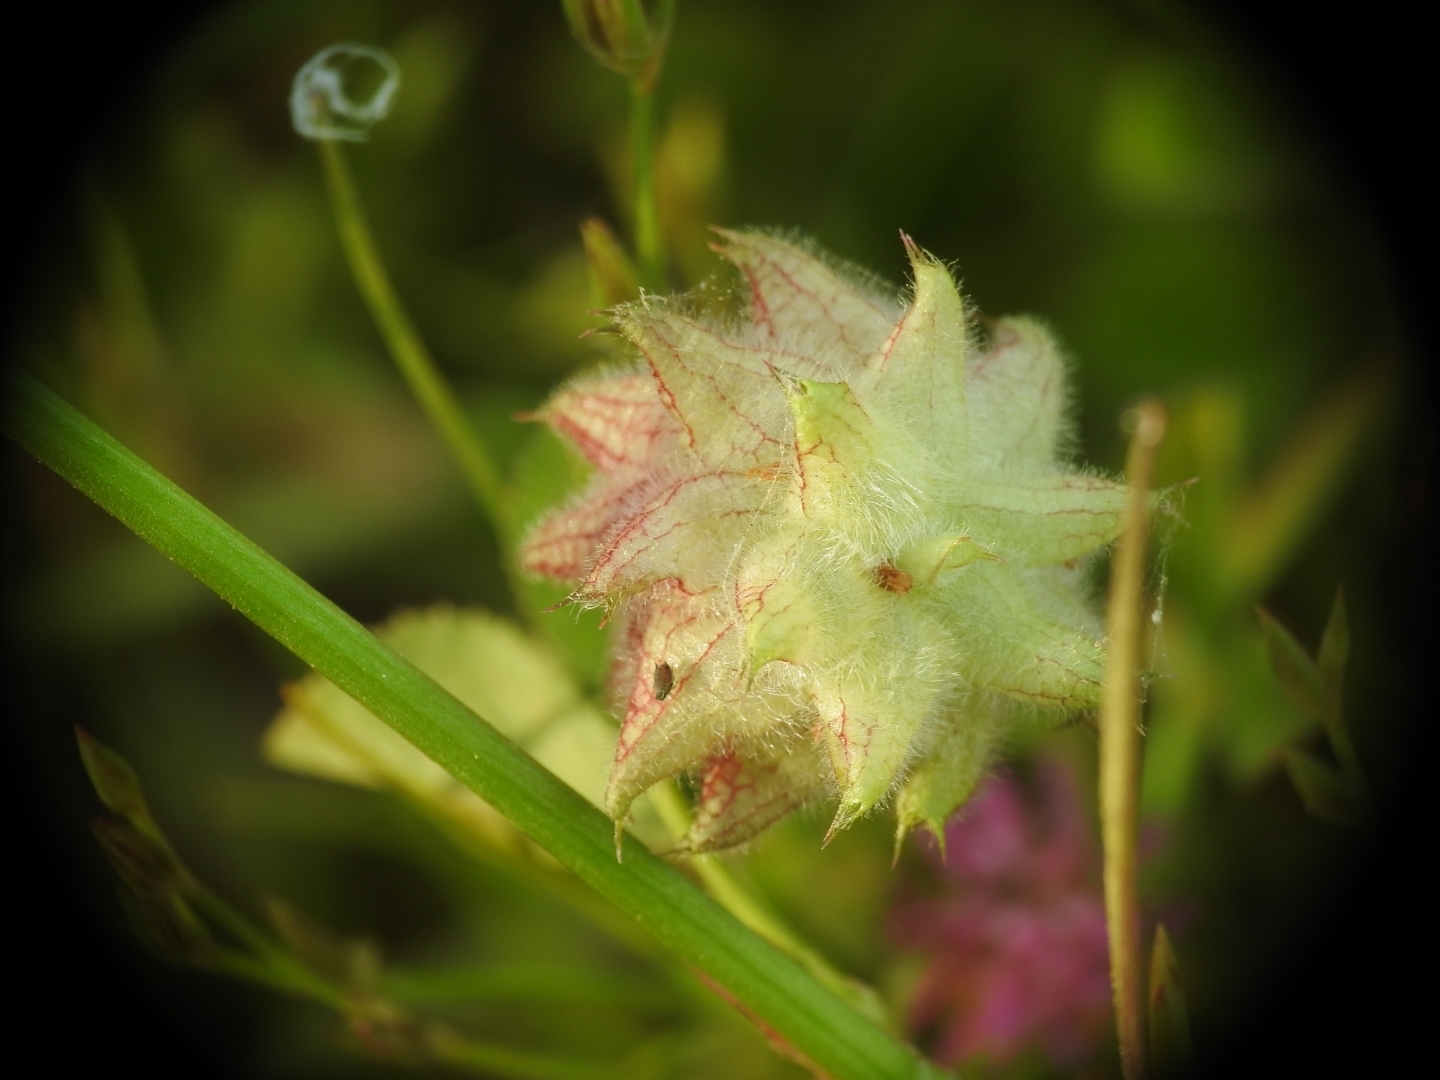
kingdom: Plantae
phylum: Tracheophyta
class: Magnoliopsida
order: Fabales
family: Fabaceae
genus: Trifolium
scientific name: Trifolium resupinatum
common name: Reversed clover
